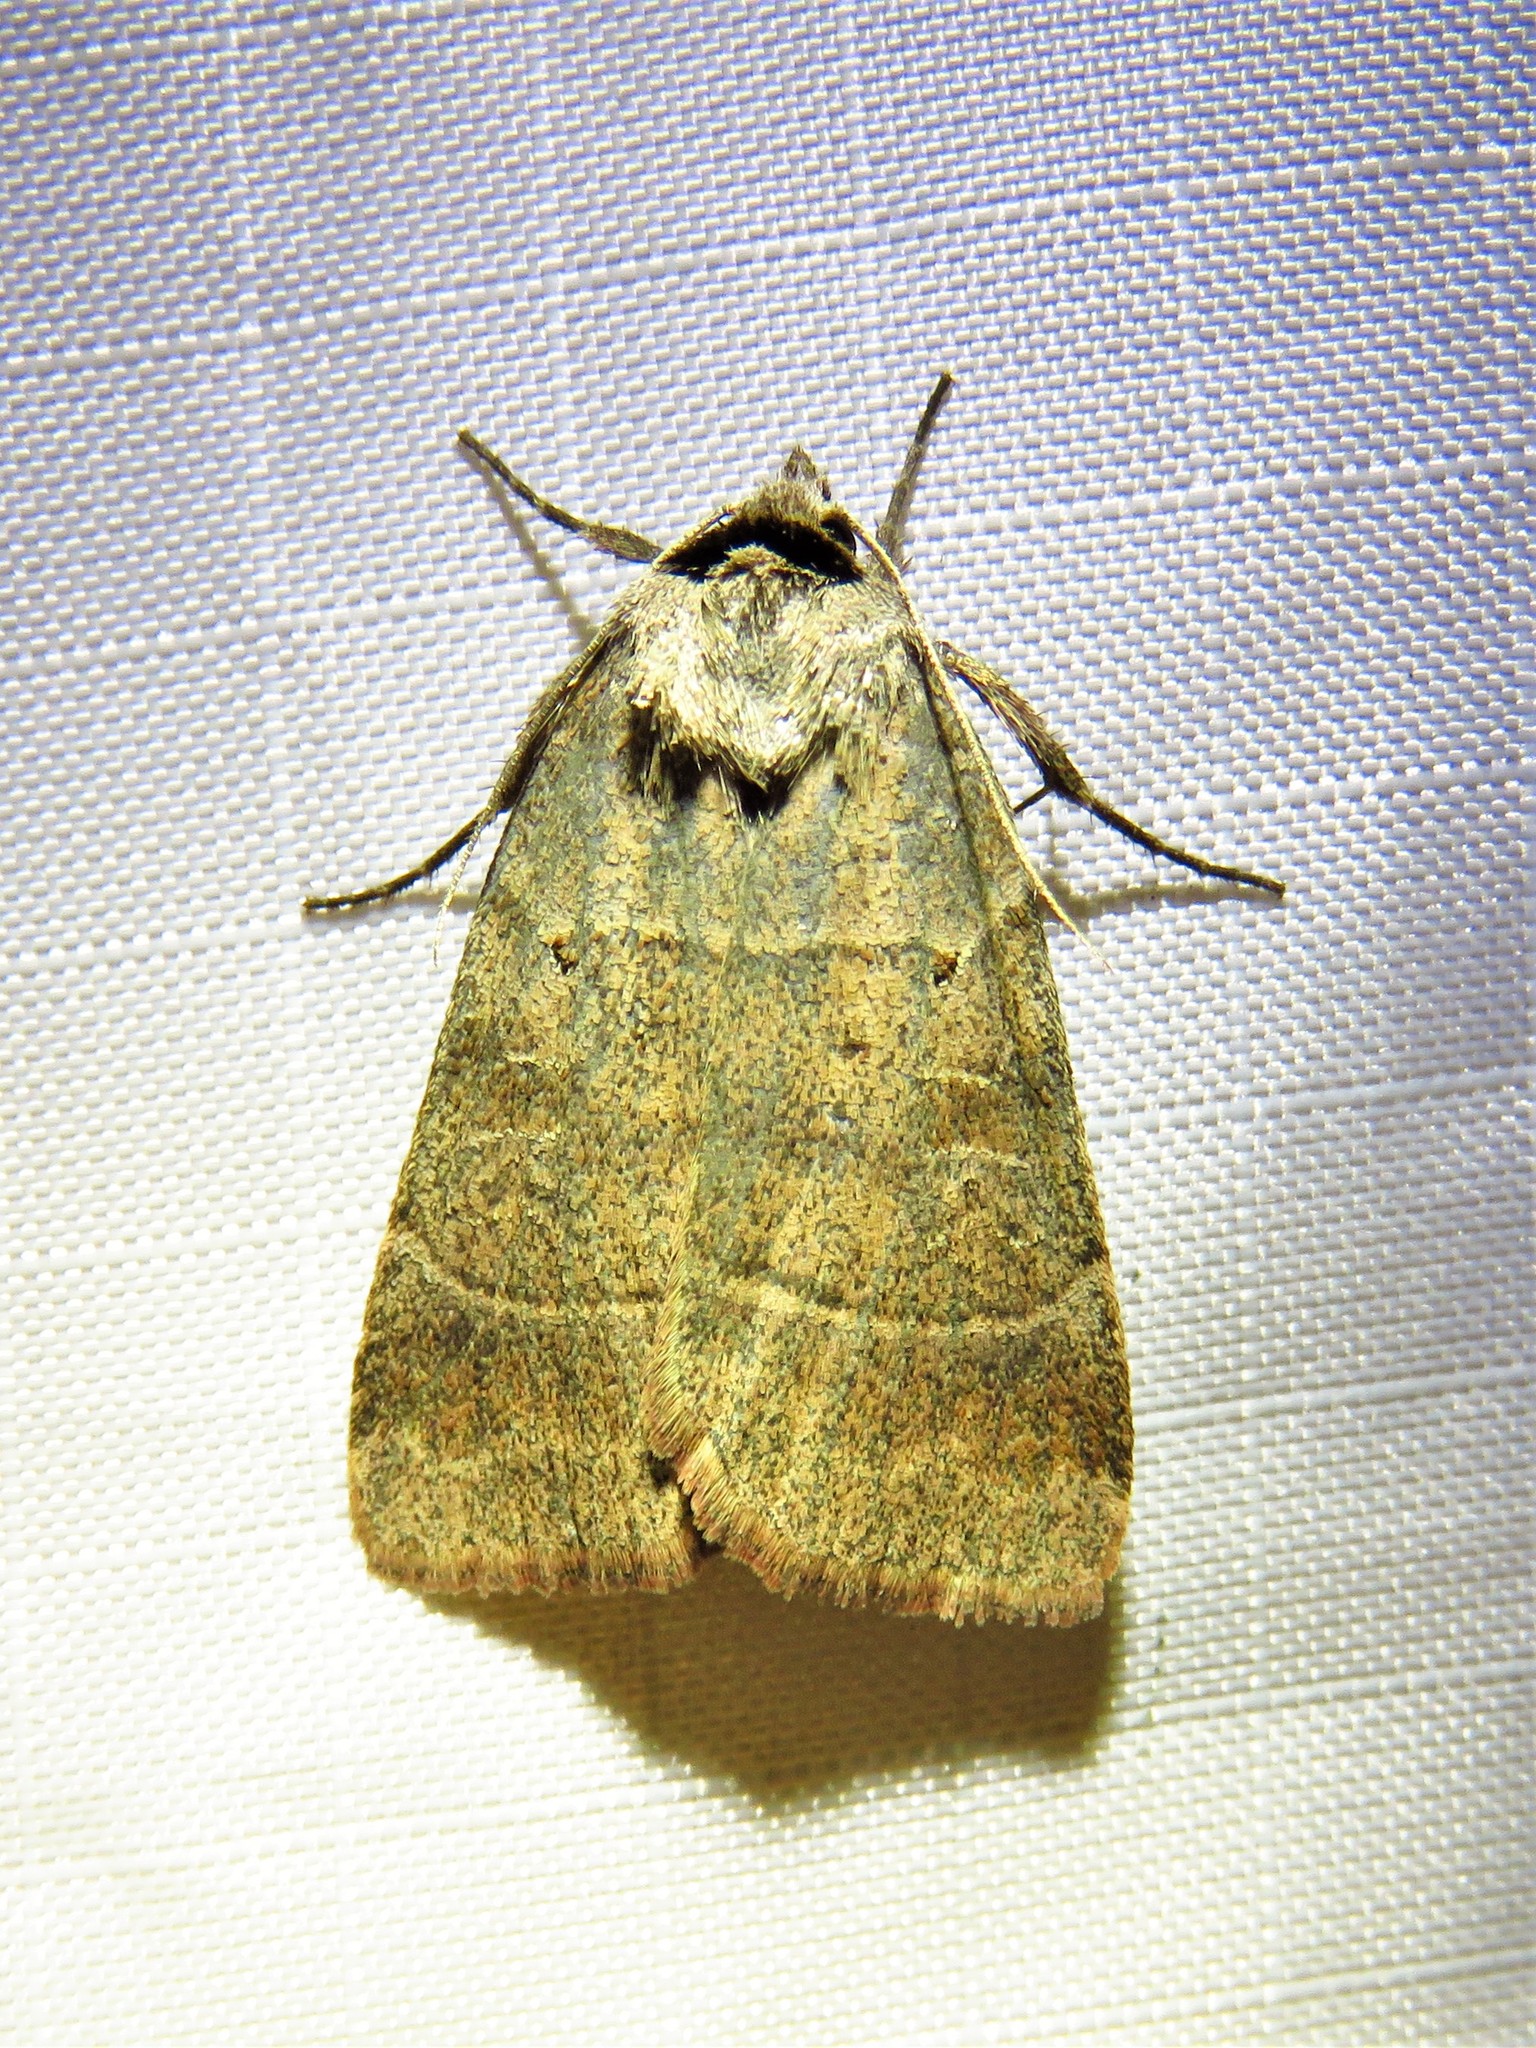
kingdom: Animalia
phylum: Arthropoda
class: Insecta
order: Lepidoptera
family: Noctuidae
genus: Agnorisma
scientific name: Agnorisma badinodis
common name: Pale-banded dart
